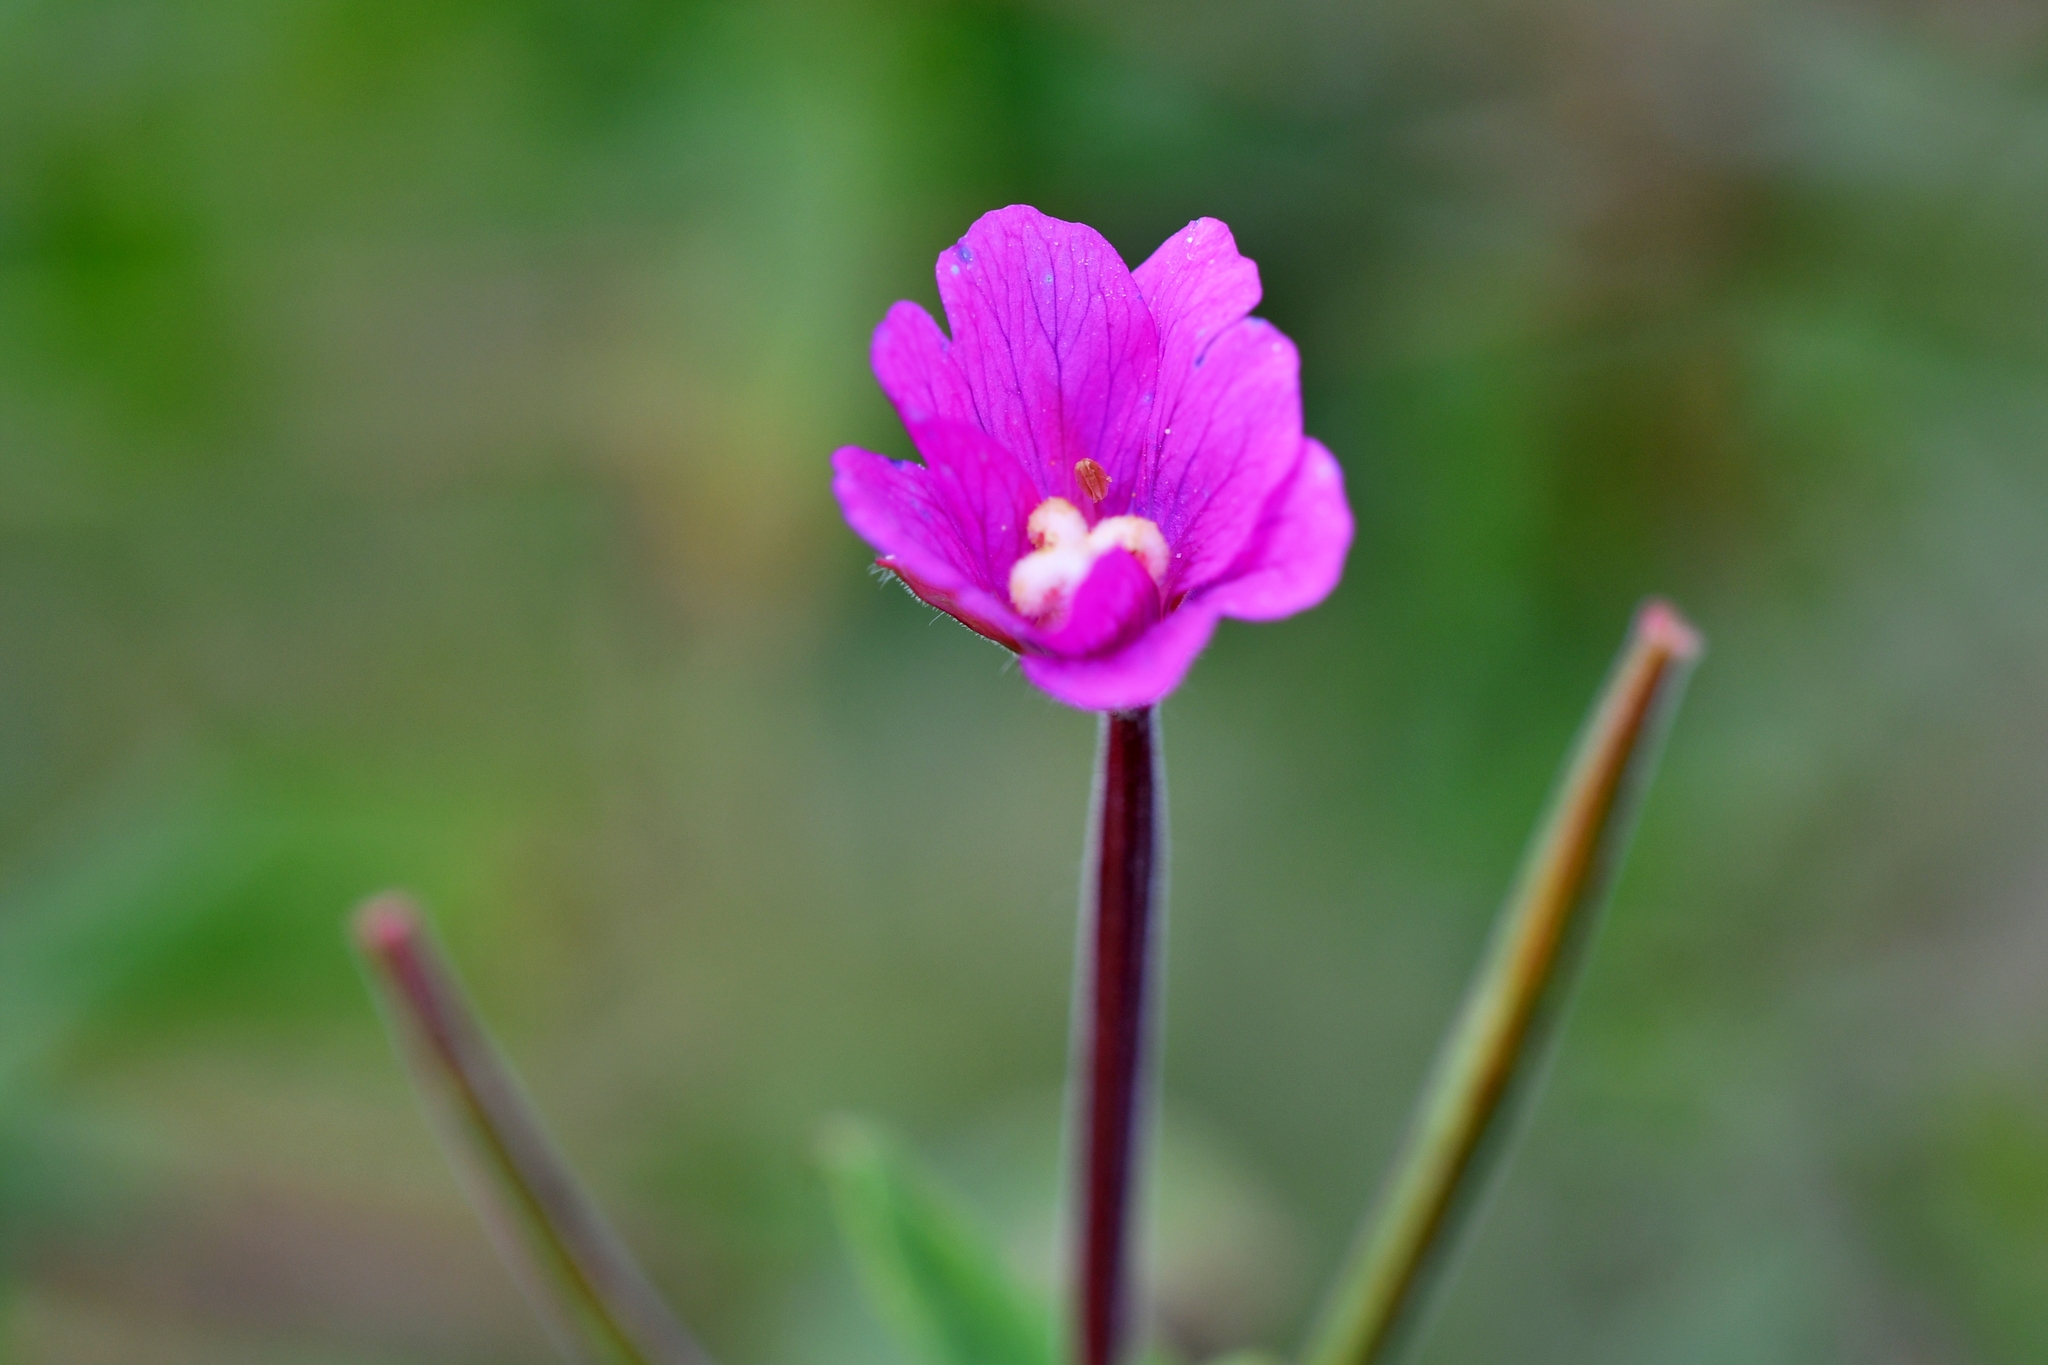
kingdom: Plantae
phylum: Tracheophyta
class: Magnoliopsida
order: Myrtales
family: Onagraceae
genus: Epilobium
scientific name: Epilobium hirsutum
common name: Great willowherb
